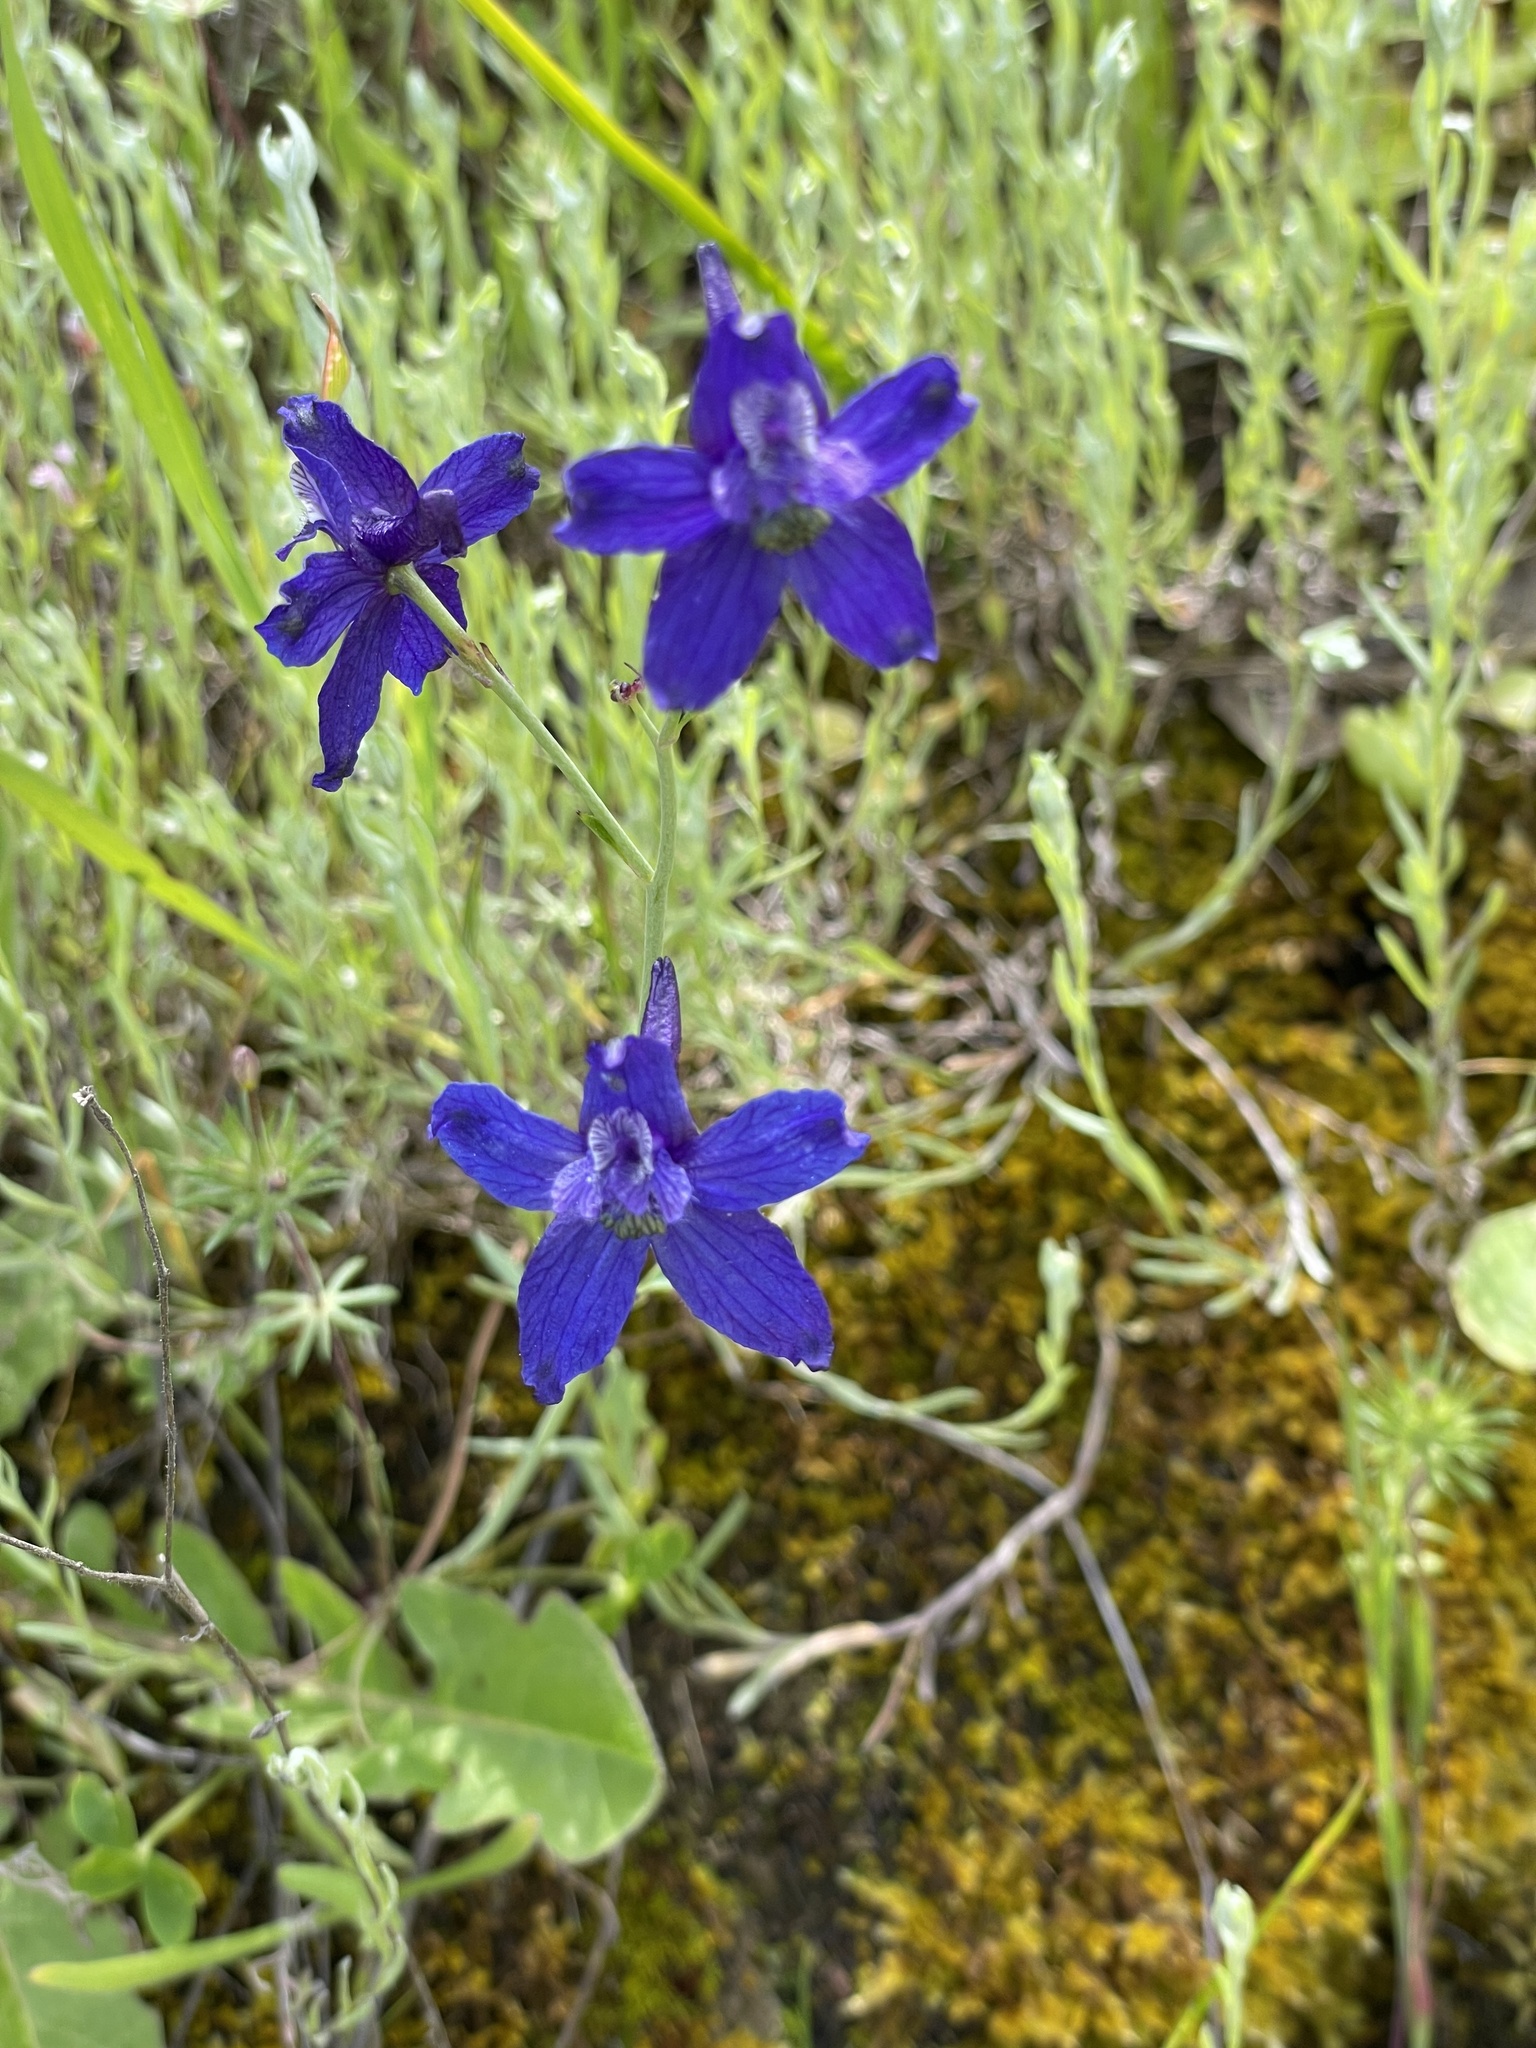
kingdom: Plantae
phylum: Tracheophyta
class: Magnoliopsida
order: Ranunculales
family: Ranunculaceae
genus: Delphinium
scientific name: Delphinium patens
